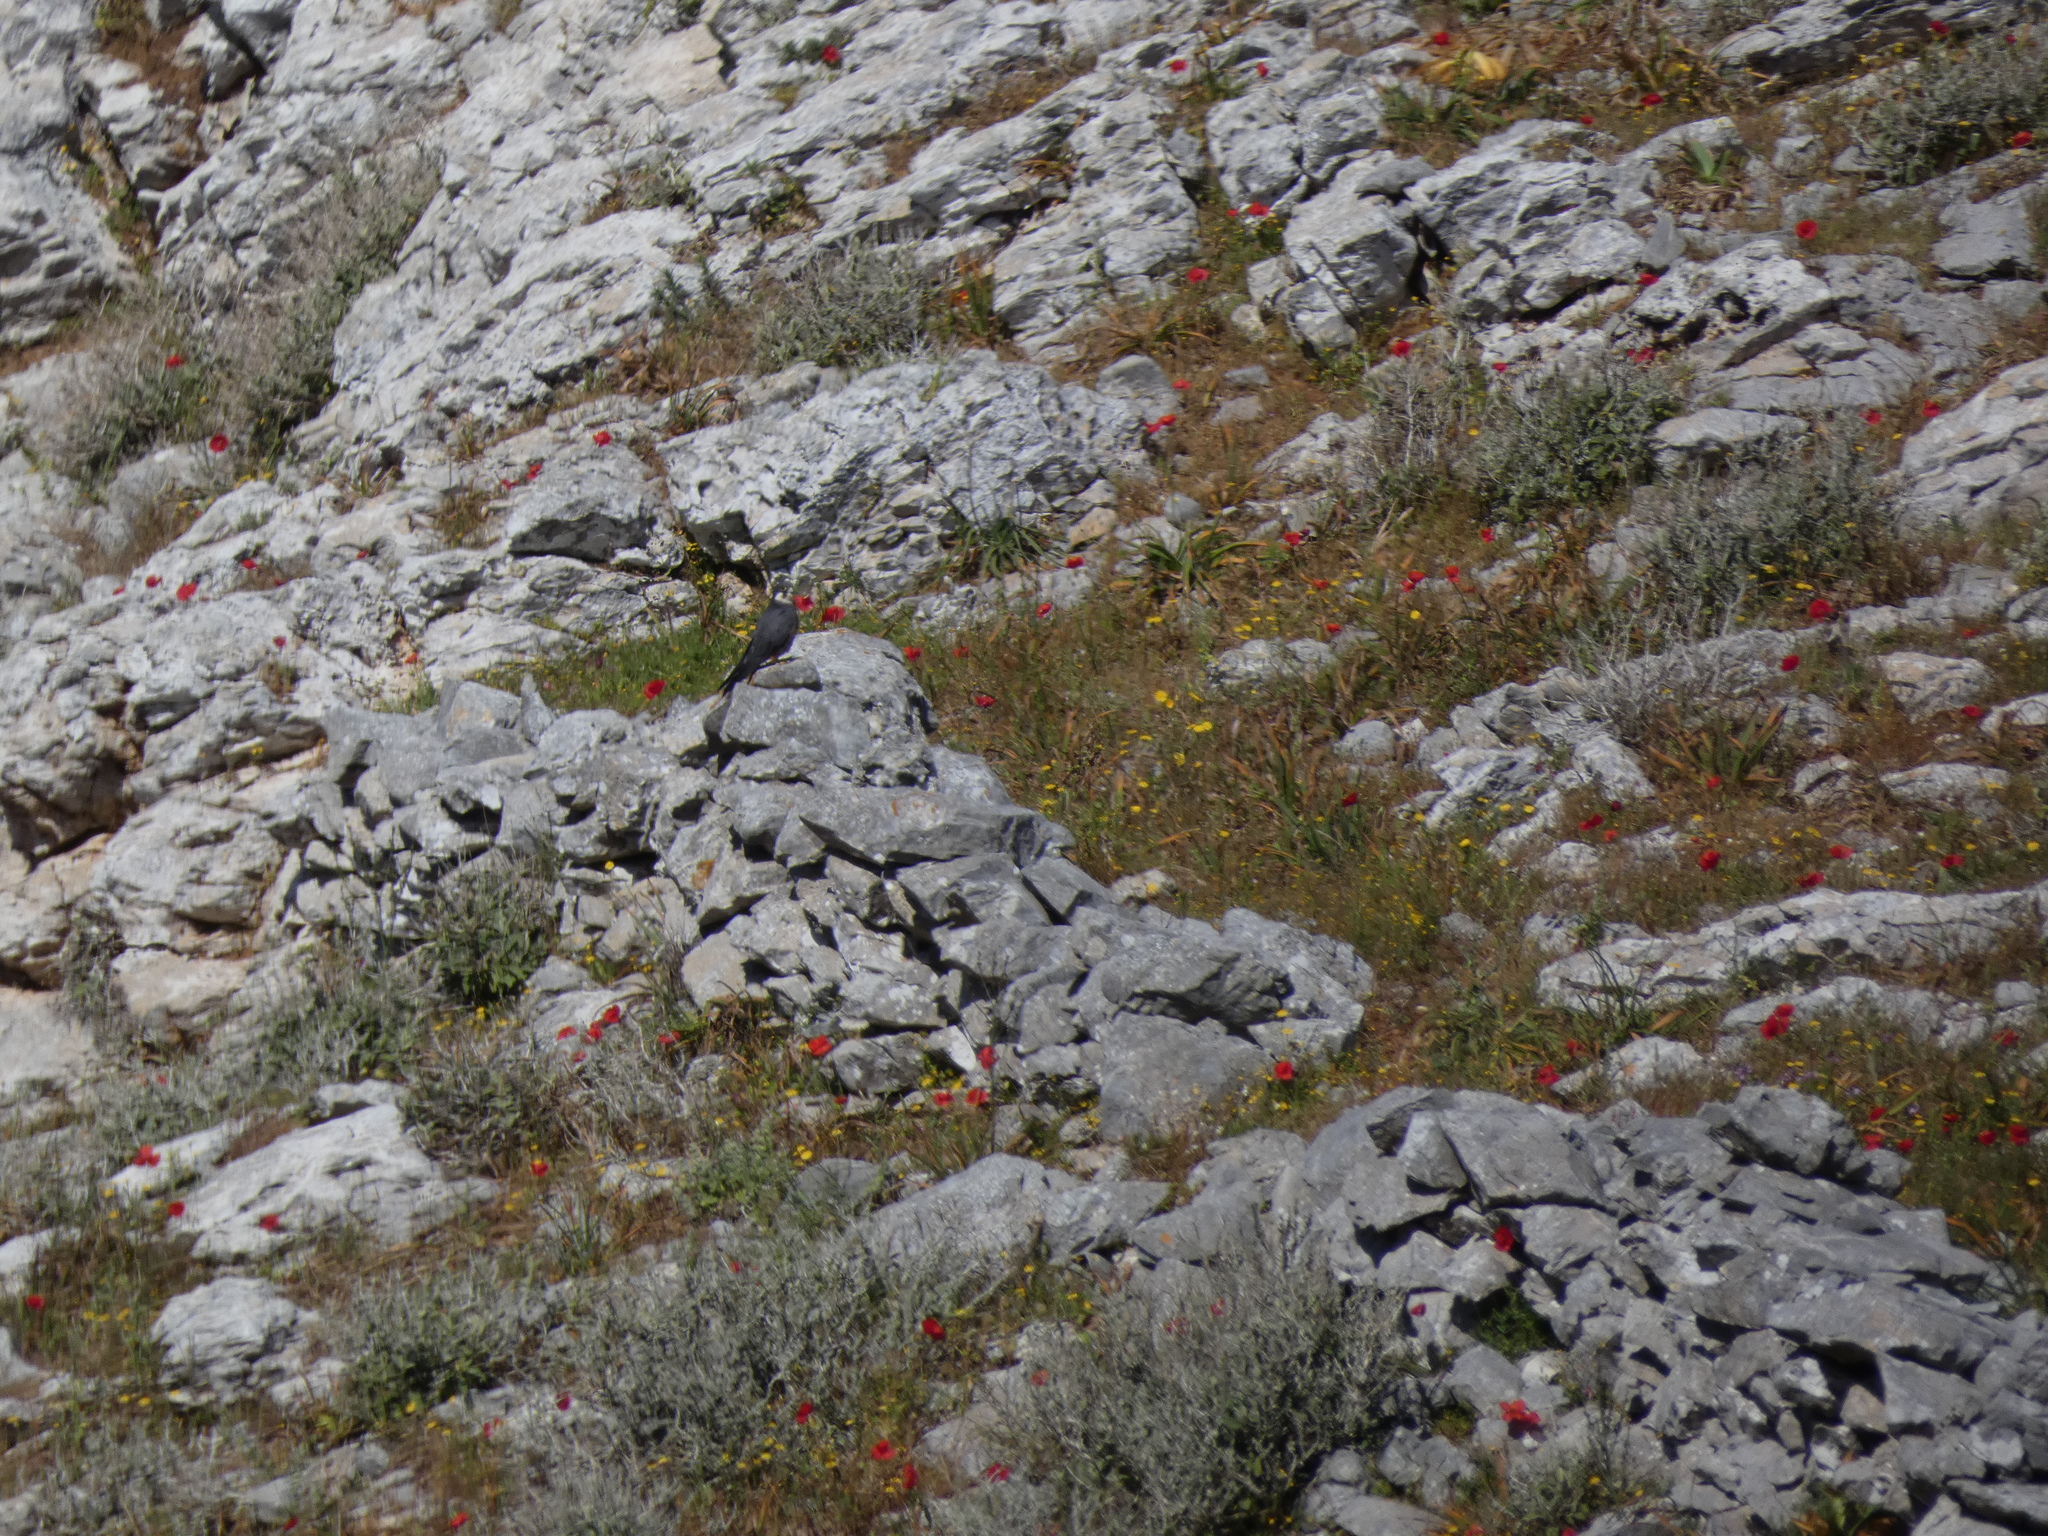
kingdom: Animalia
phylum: Chordata
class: Aves
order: Falconiformes
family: Falconidae
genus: Falco
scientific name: Falco eleonorae
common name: Eleonora's falcon
